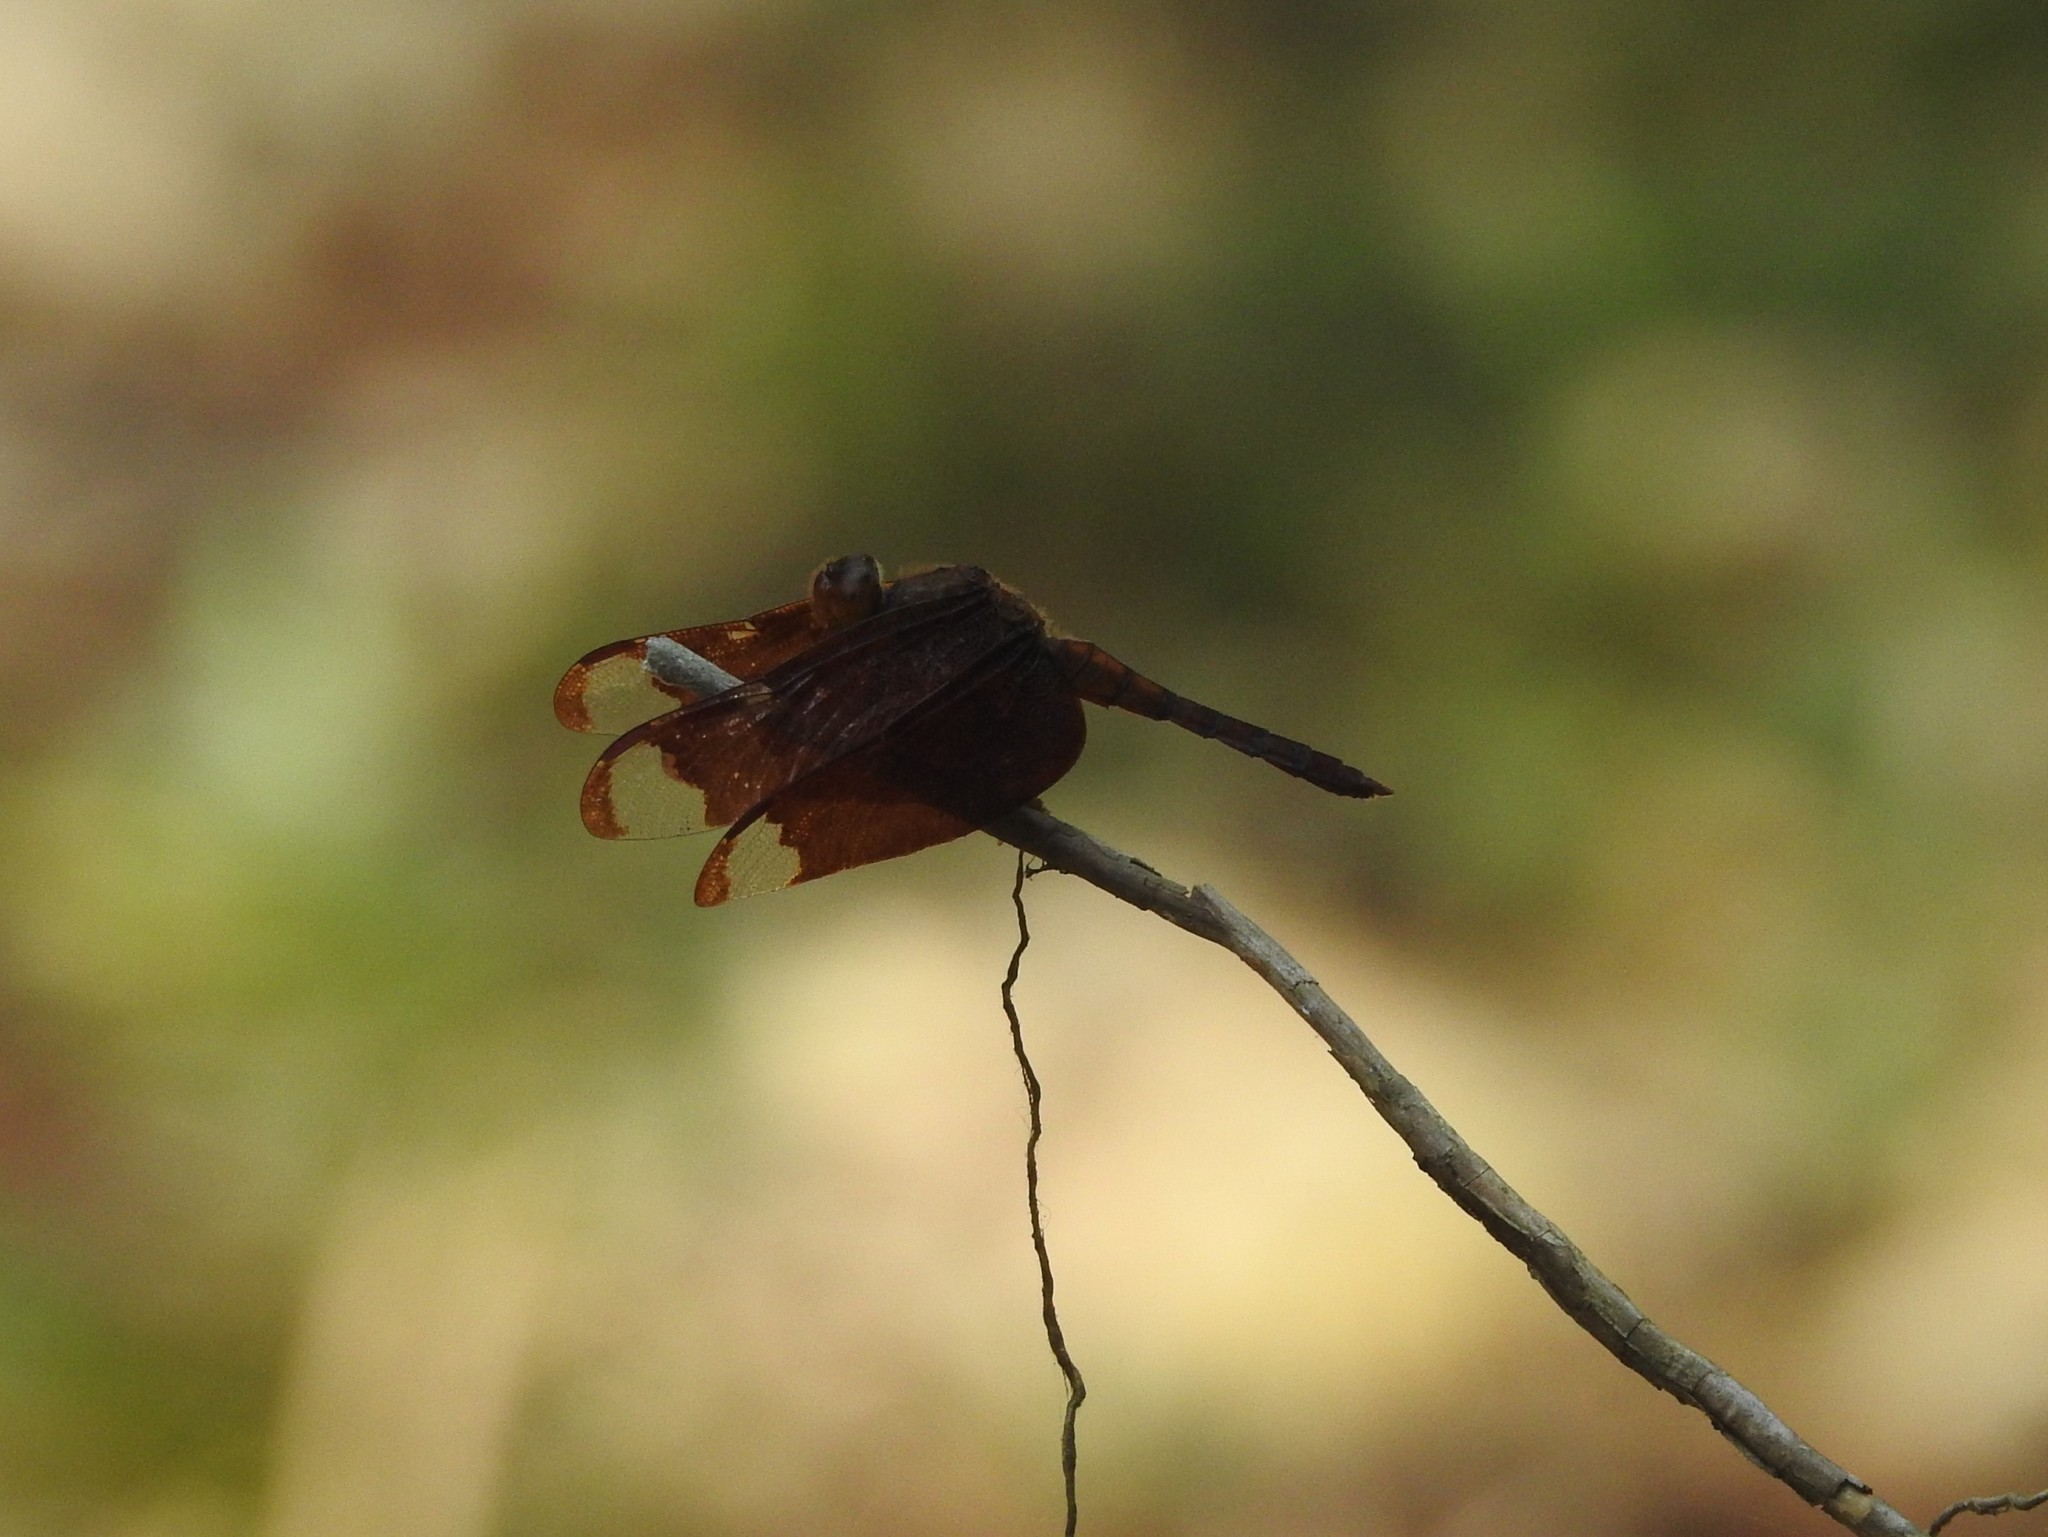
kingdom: Animalia
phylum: Arthropoda
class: Insecta
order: Odonata
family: Libellulidae
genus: Neurothemis
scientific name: Neurothemis fulvia
